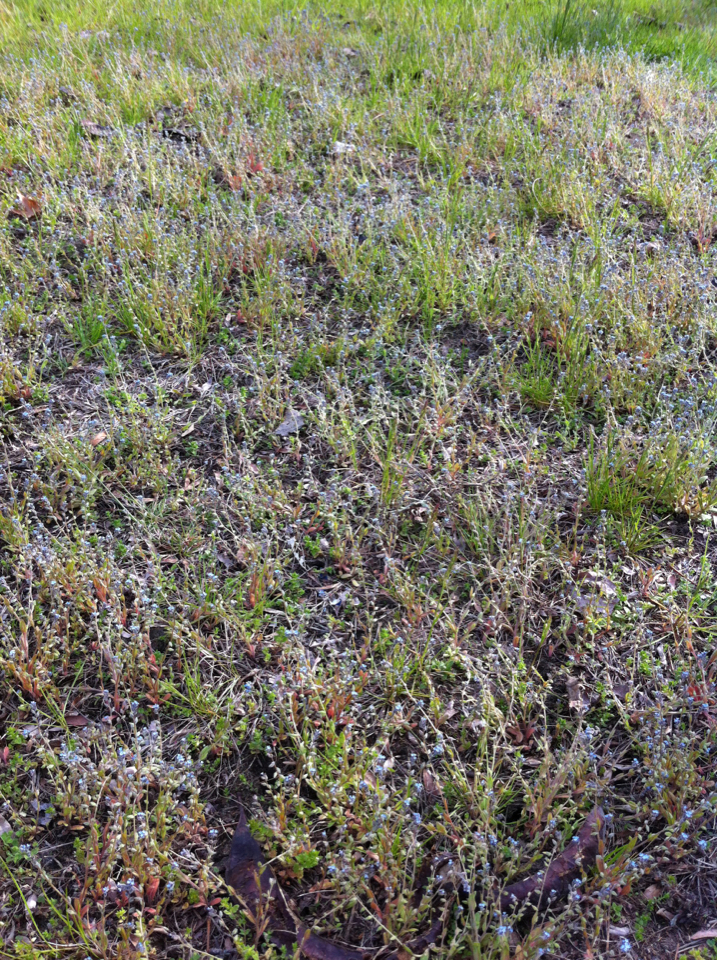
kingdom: Plantae
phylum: Tracheophyta
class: Magnoliopsida
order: Boraginales
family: Boraginaceae
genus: Myosotis
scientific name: Myosotis stricta
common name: Strict forget-me-not
